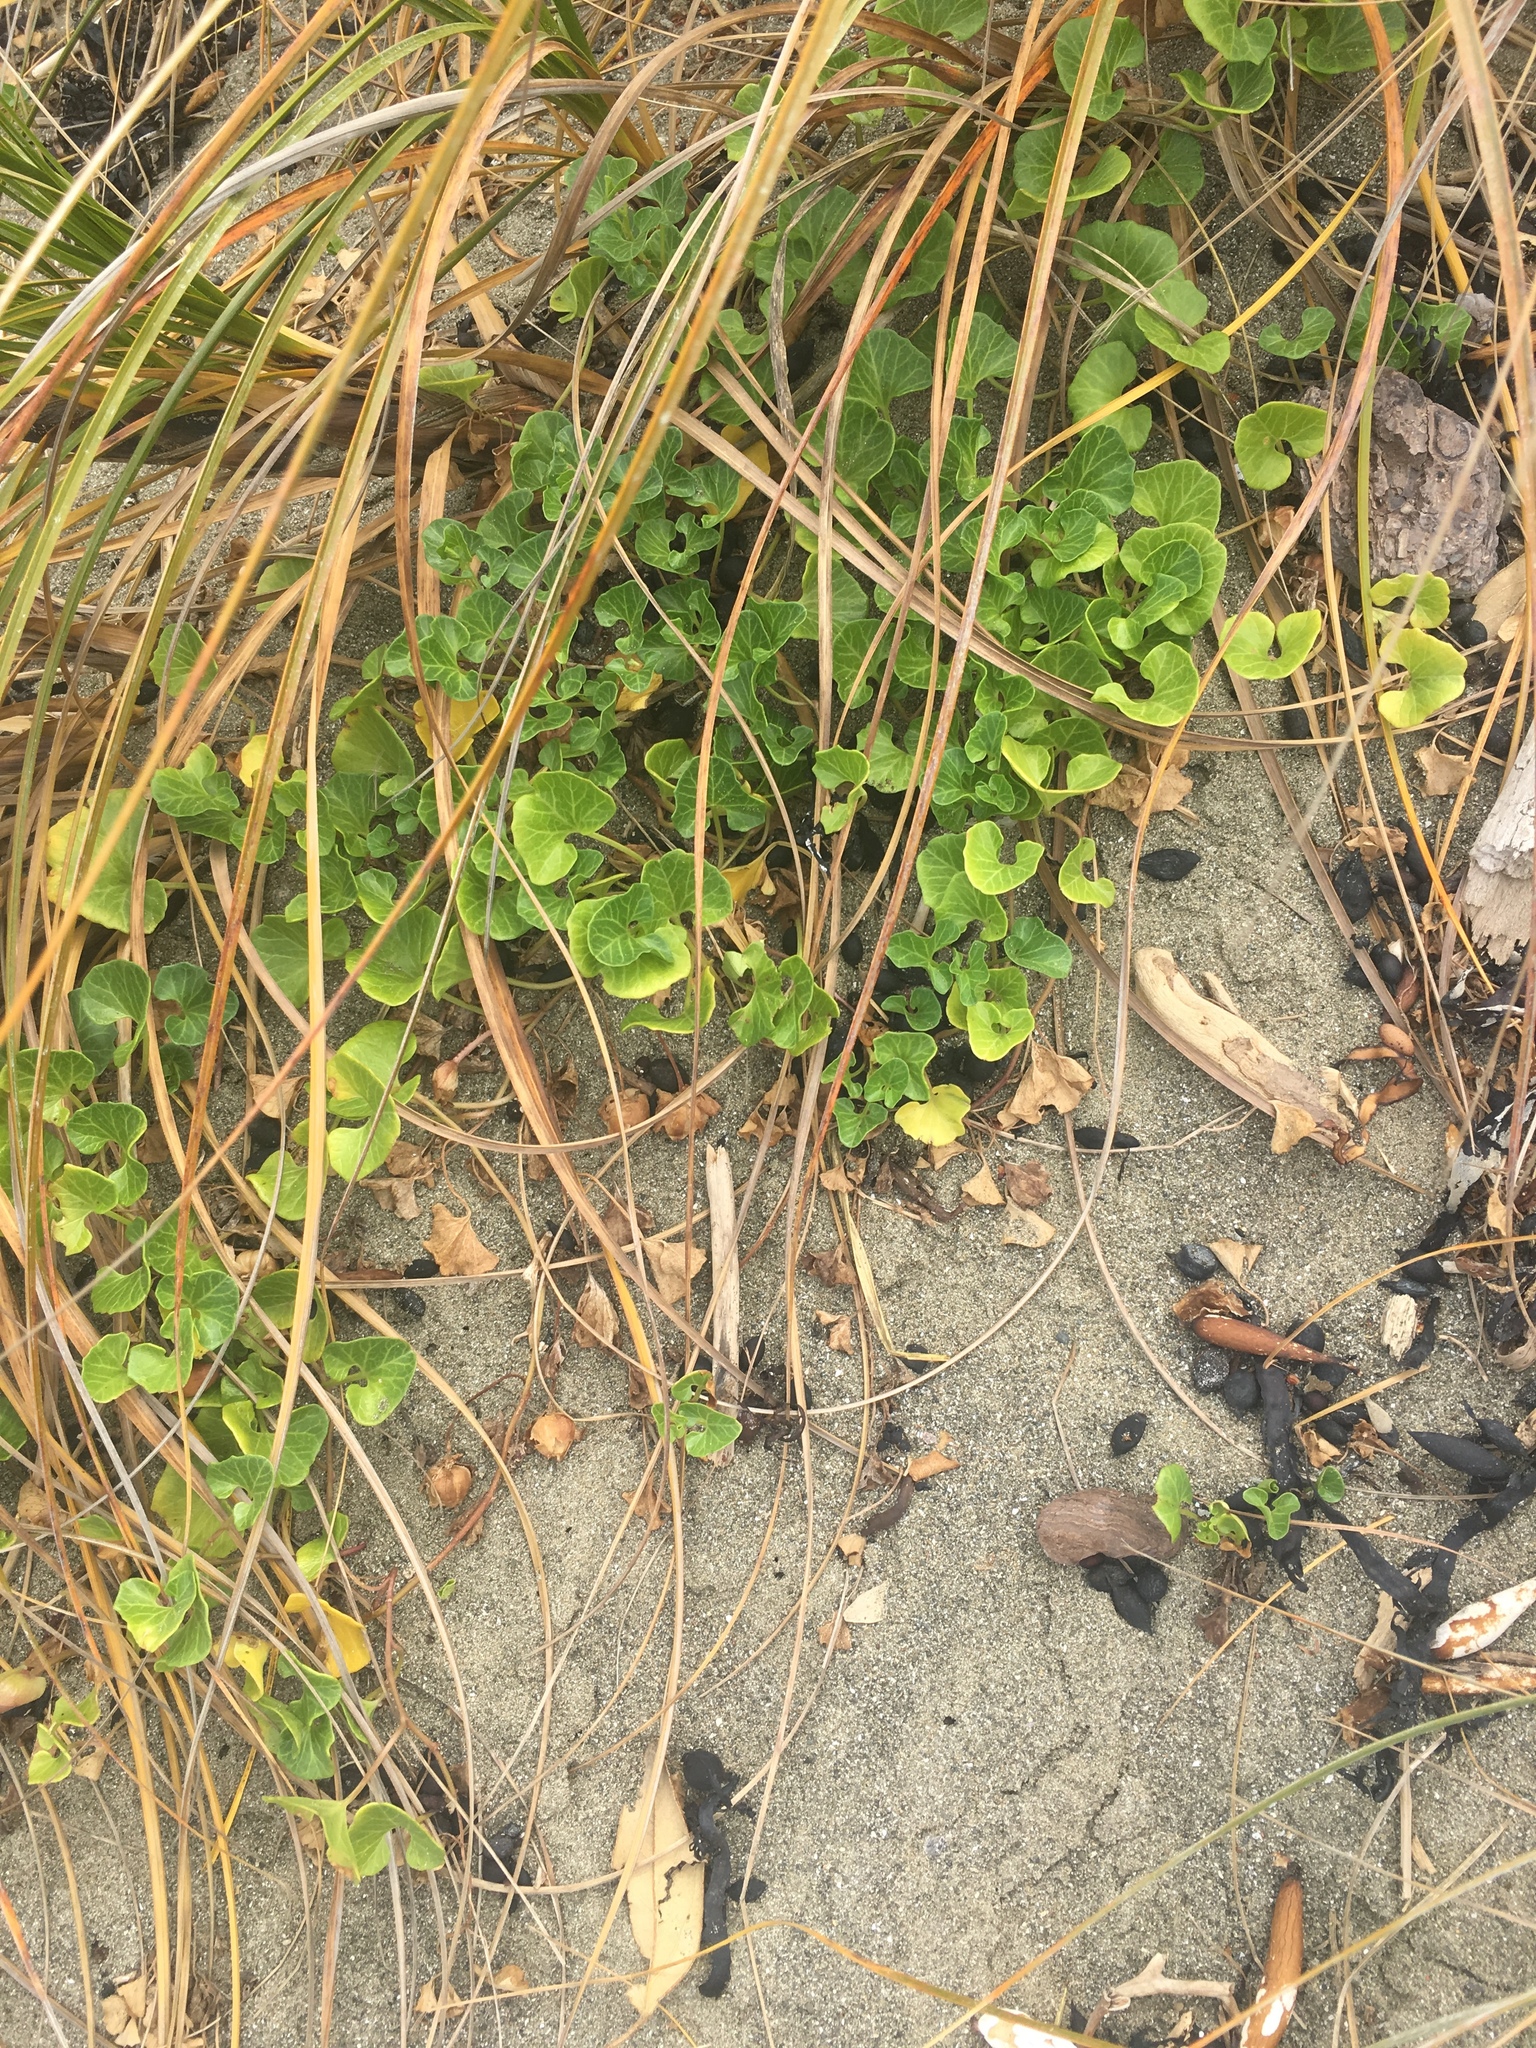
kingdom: Plantae
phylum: Tracheophyta
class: Magnoliopsida
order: Solanales
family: Convolvulaceae
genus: Calystegia
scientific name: Calystegia soldanella
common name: Sea bindweed
